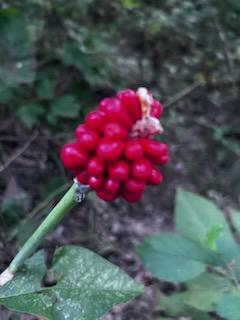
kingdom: Plantae
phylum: Tracheophyta
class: Liliopsida
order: Alismatales
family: Araceae
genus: Arisaema
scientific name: Arisaema triphyllum
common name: Jack-in-the-pulpit
